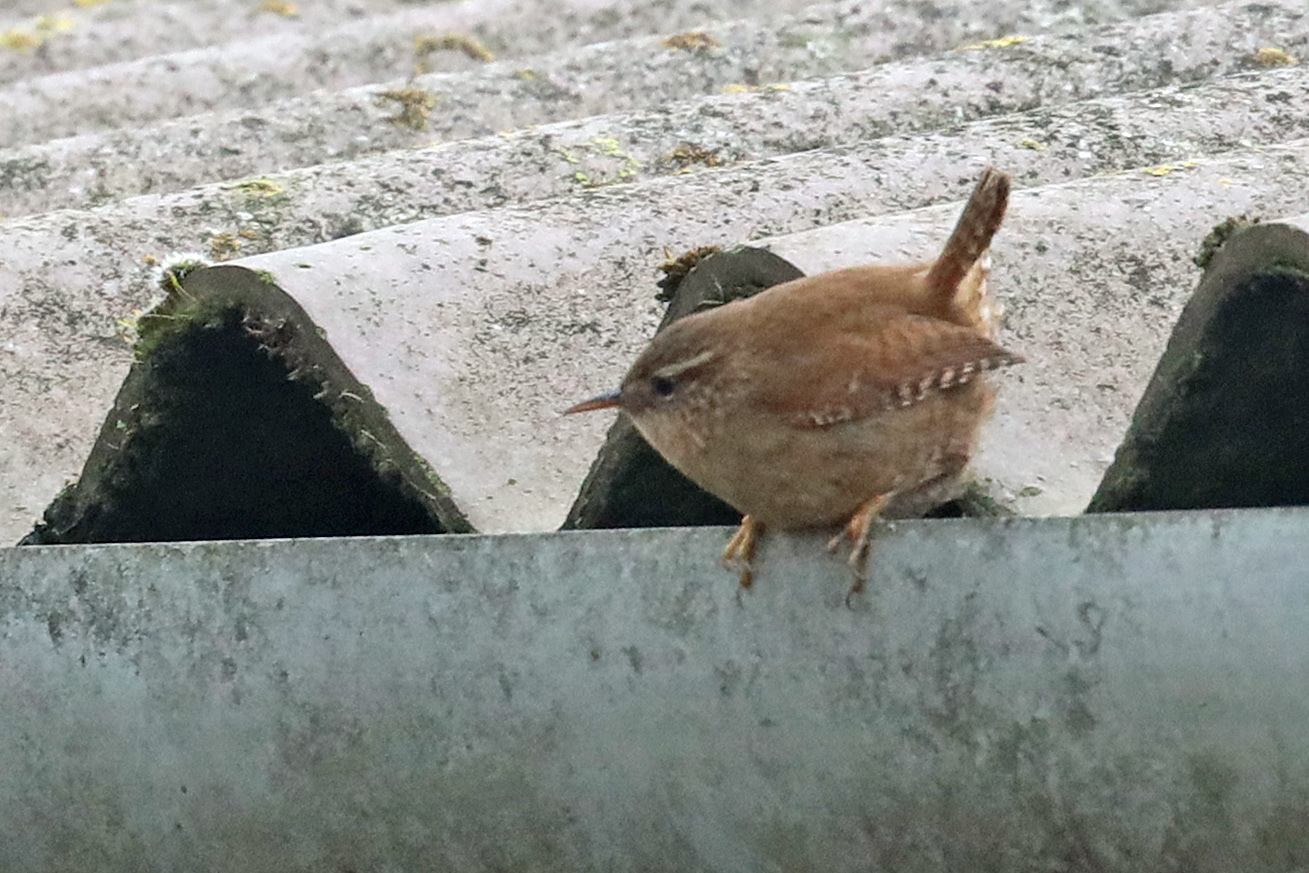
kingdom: Animalia
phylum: Chordata
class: Aves
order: Passeriformes
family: Troglodytidae
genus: Troglodytes
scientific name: Troglodytes troglodytes
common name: Eurasian wren
